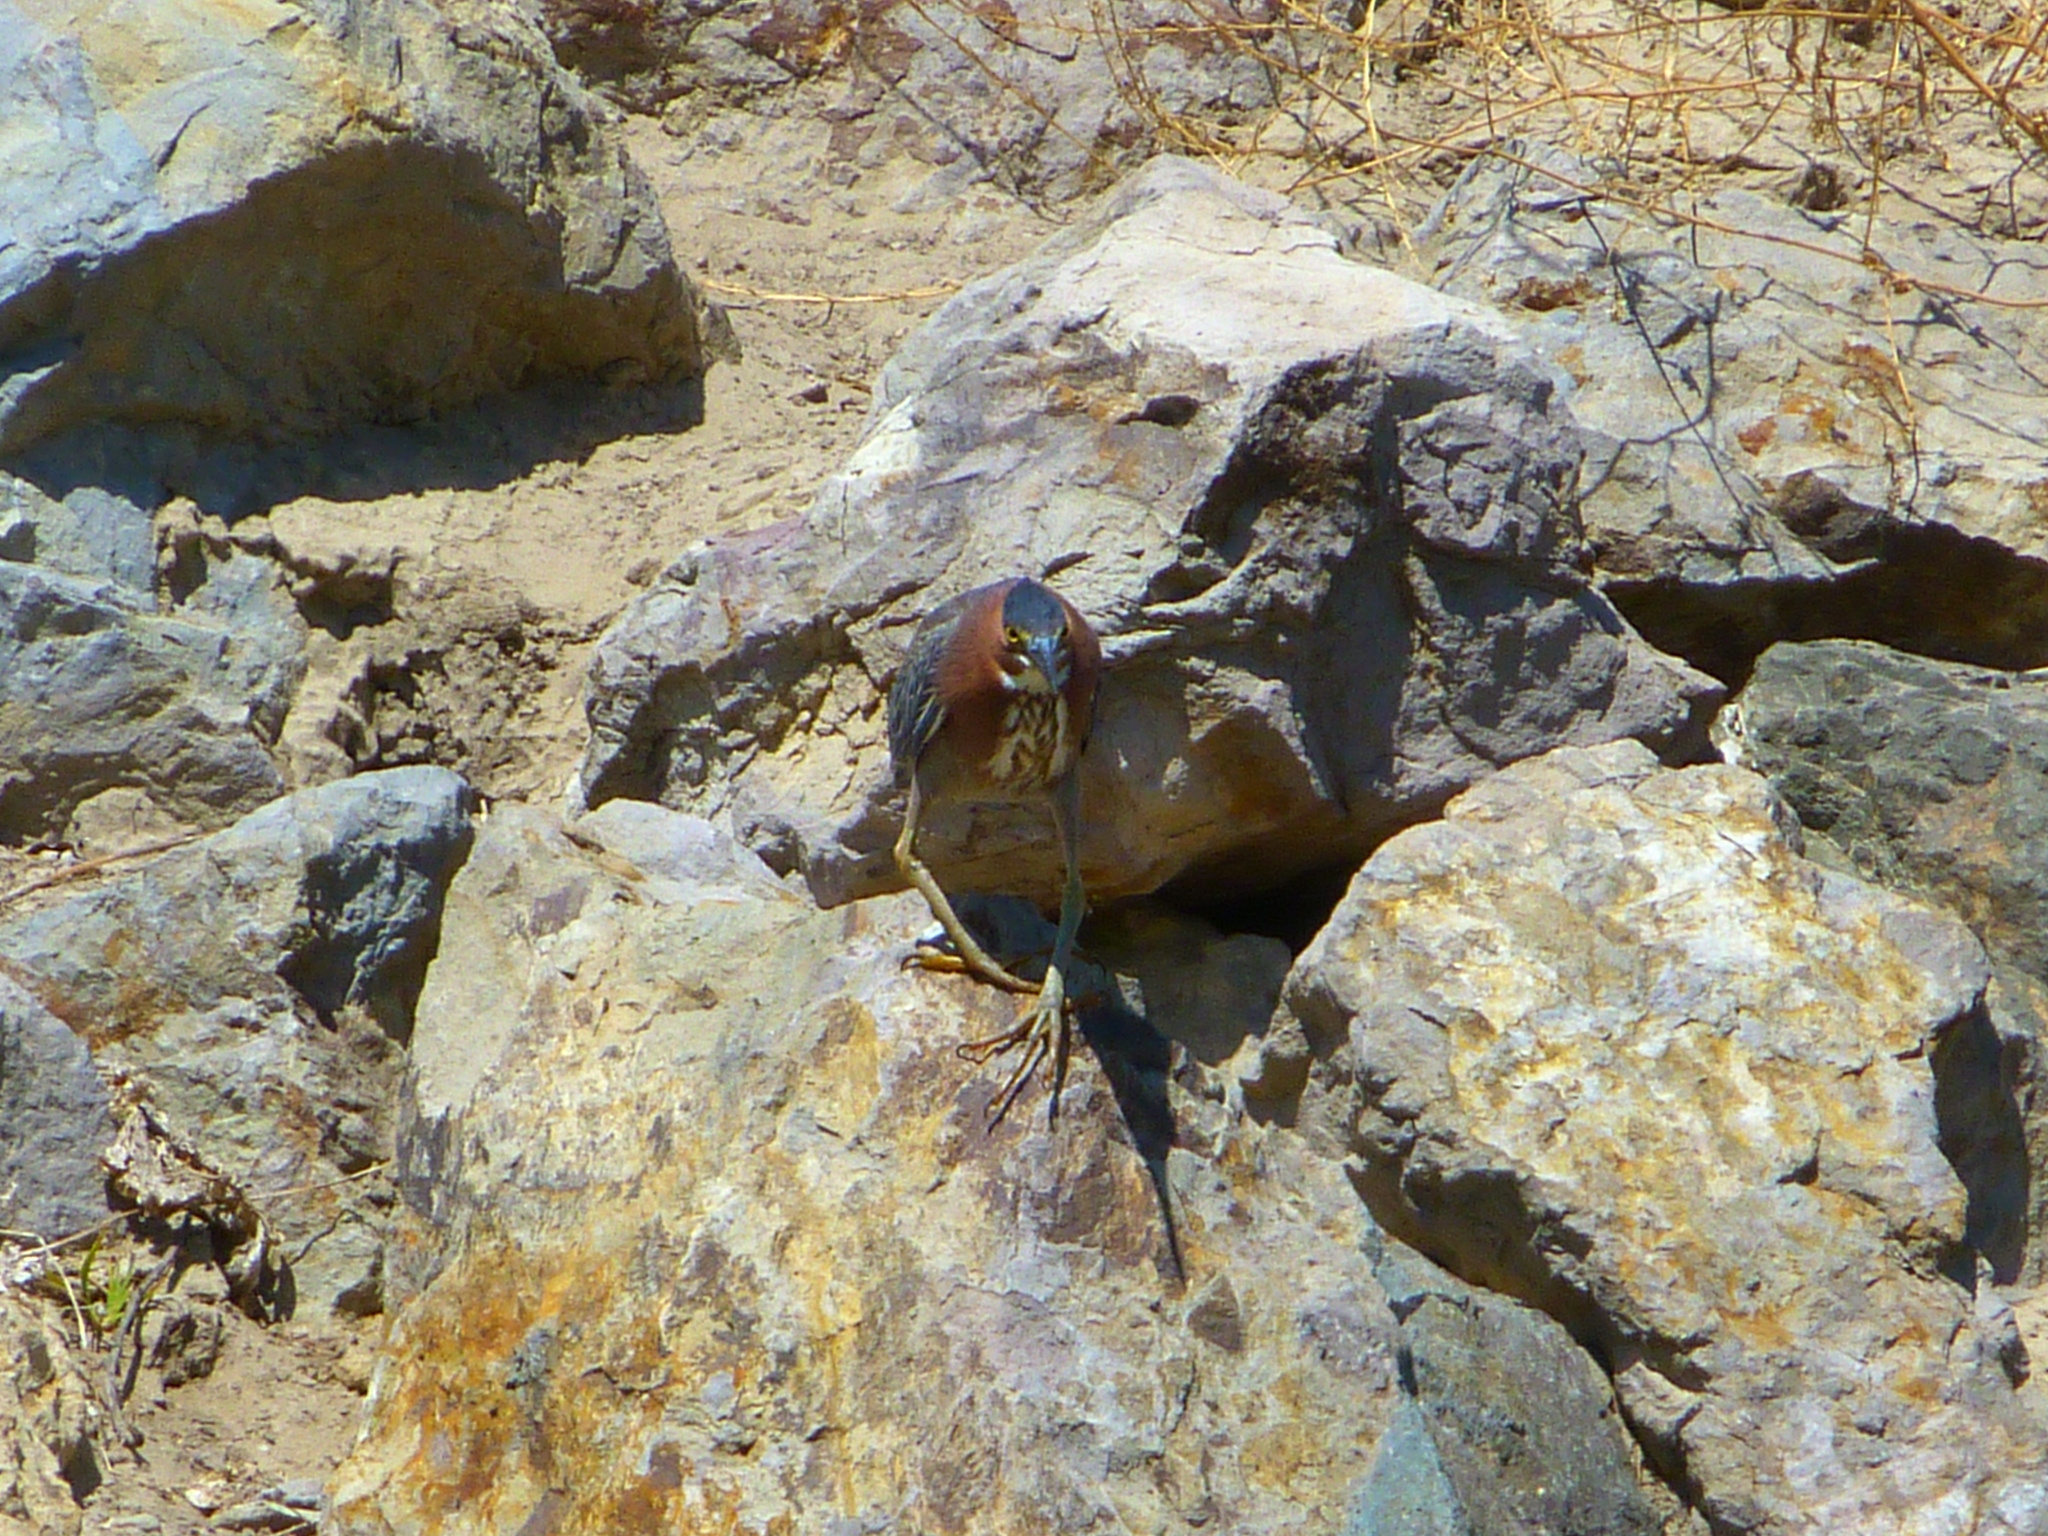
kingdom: Animalia
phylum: Chordata
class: Aves
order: Pelecaniformes
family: Ardeidae
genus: Butorides
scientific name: Butorides virescens
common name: Green heron
